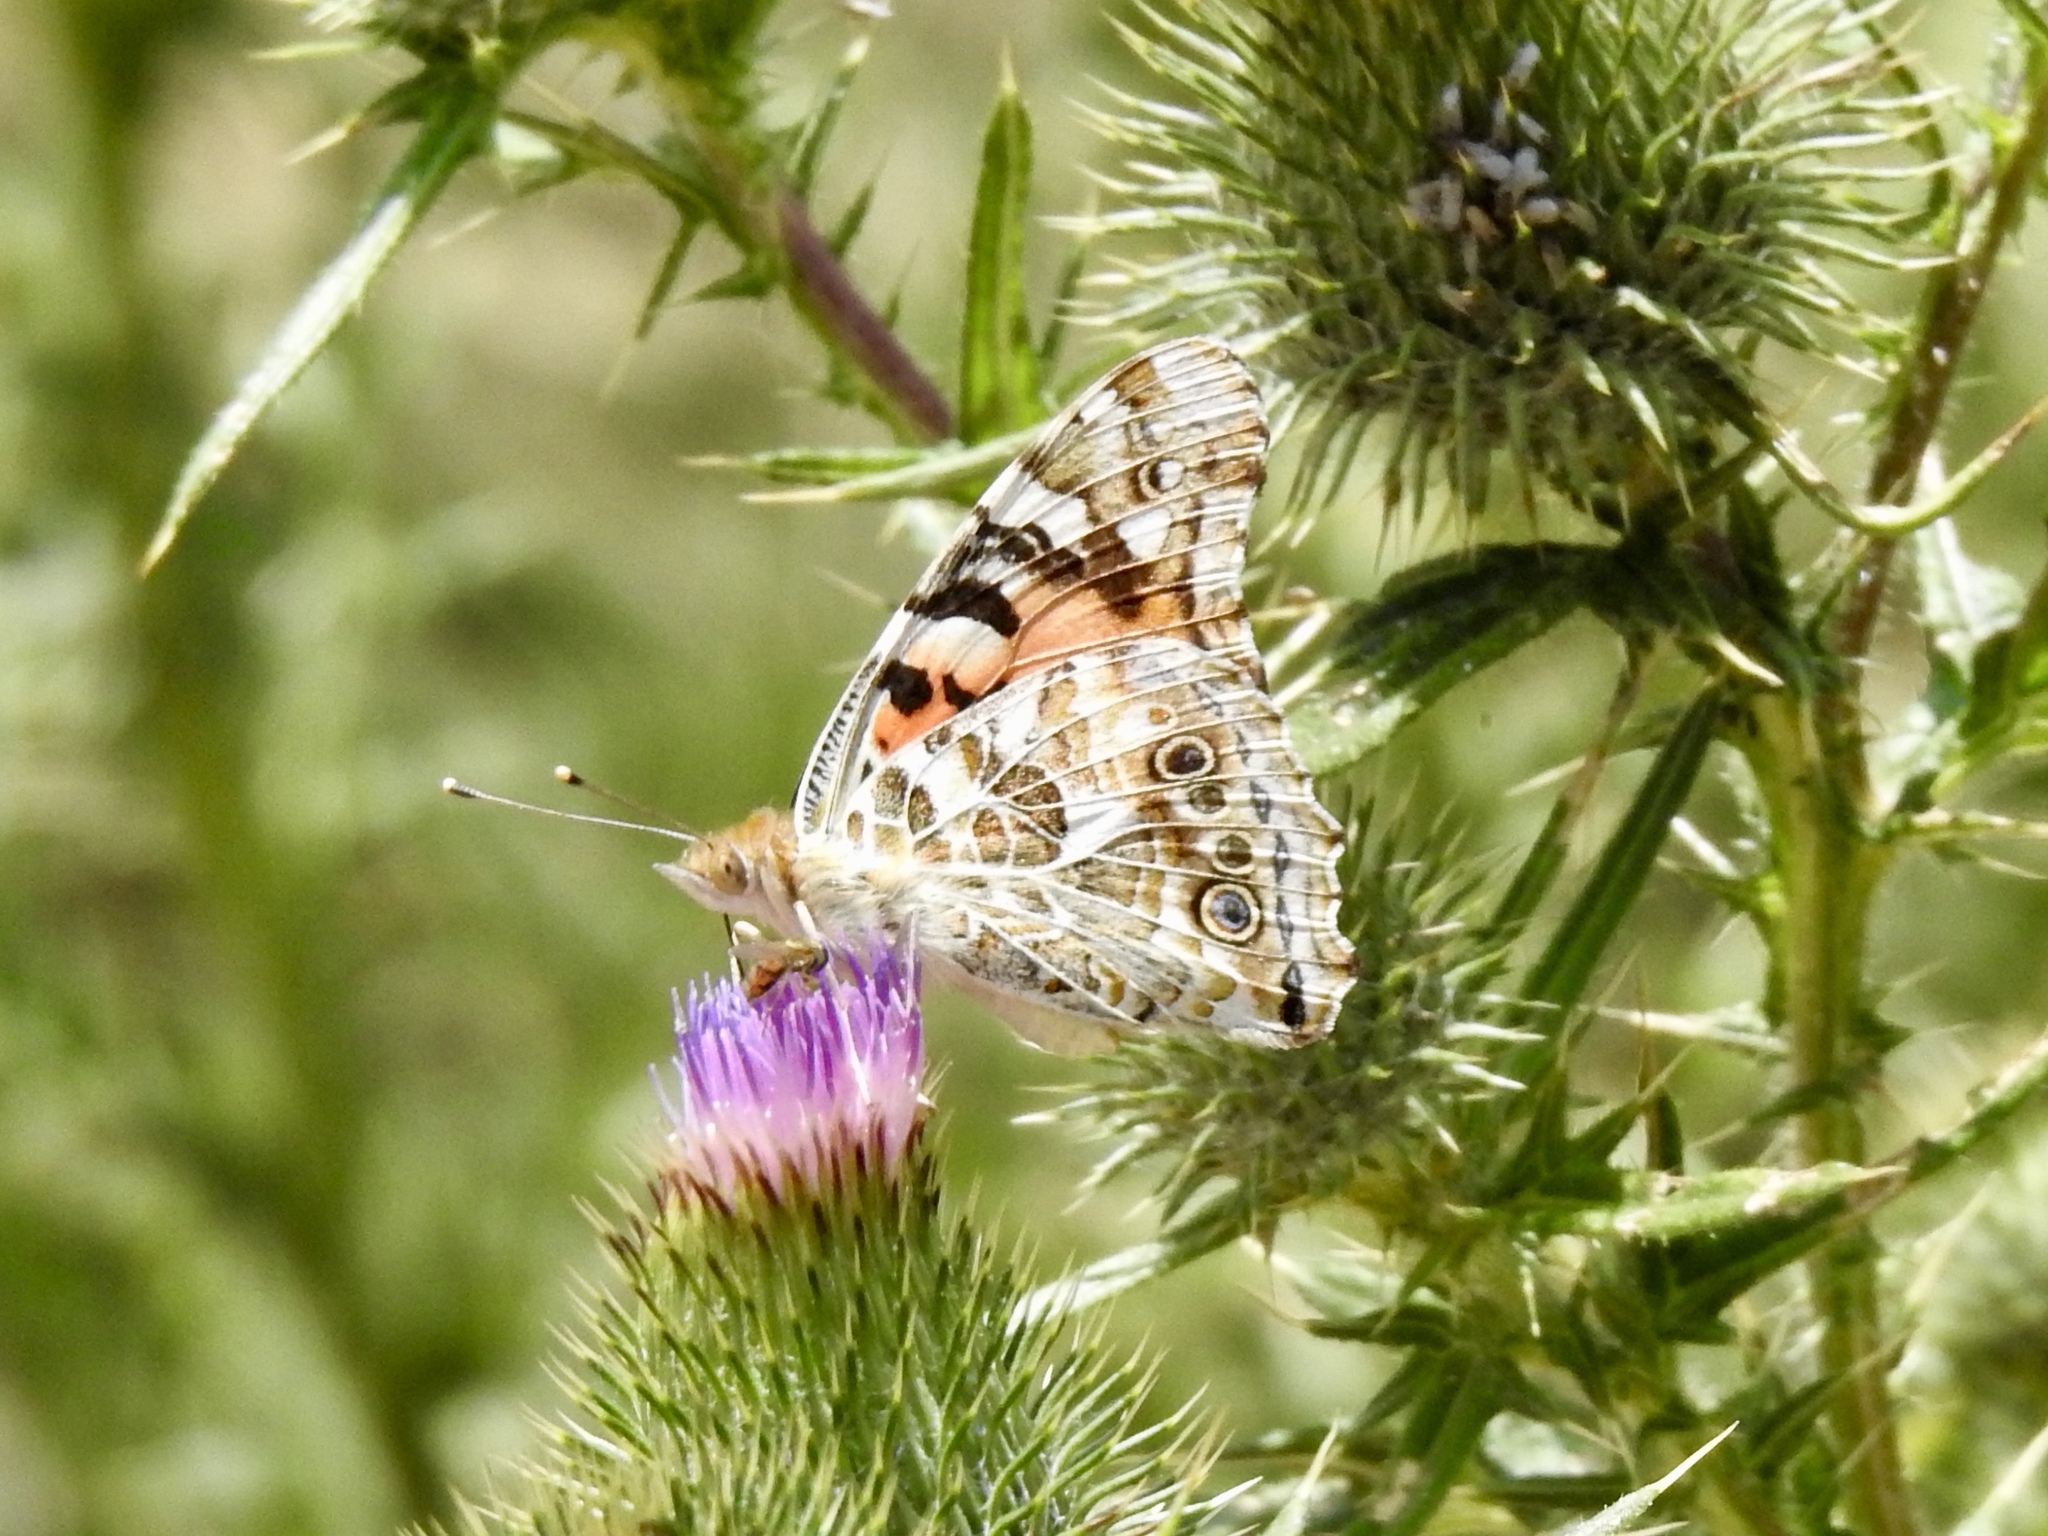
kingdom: Animalia
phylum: Arthropoda
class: Insecta
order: Lepidoptera
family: Nymphalidae
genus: Vanessa
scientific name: Vanessa cardui
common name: Painted lady
